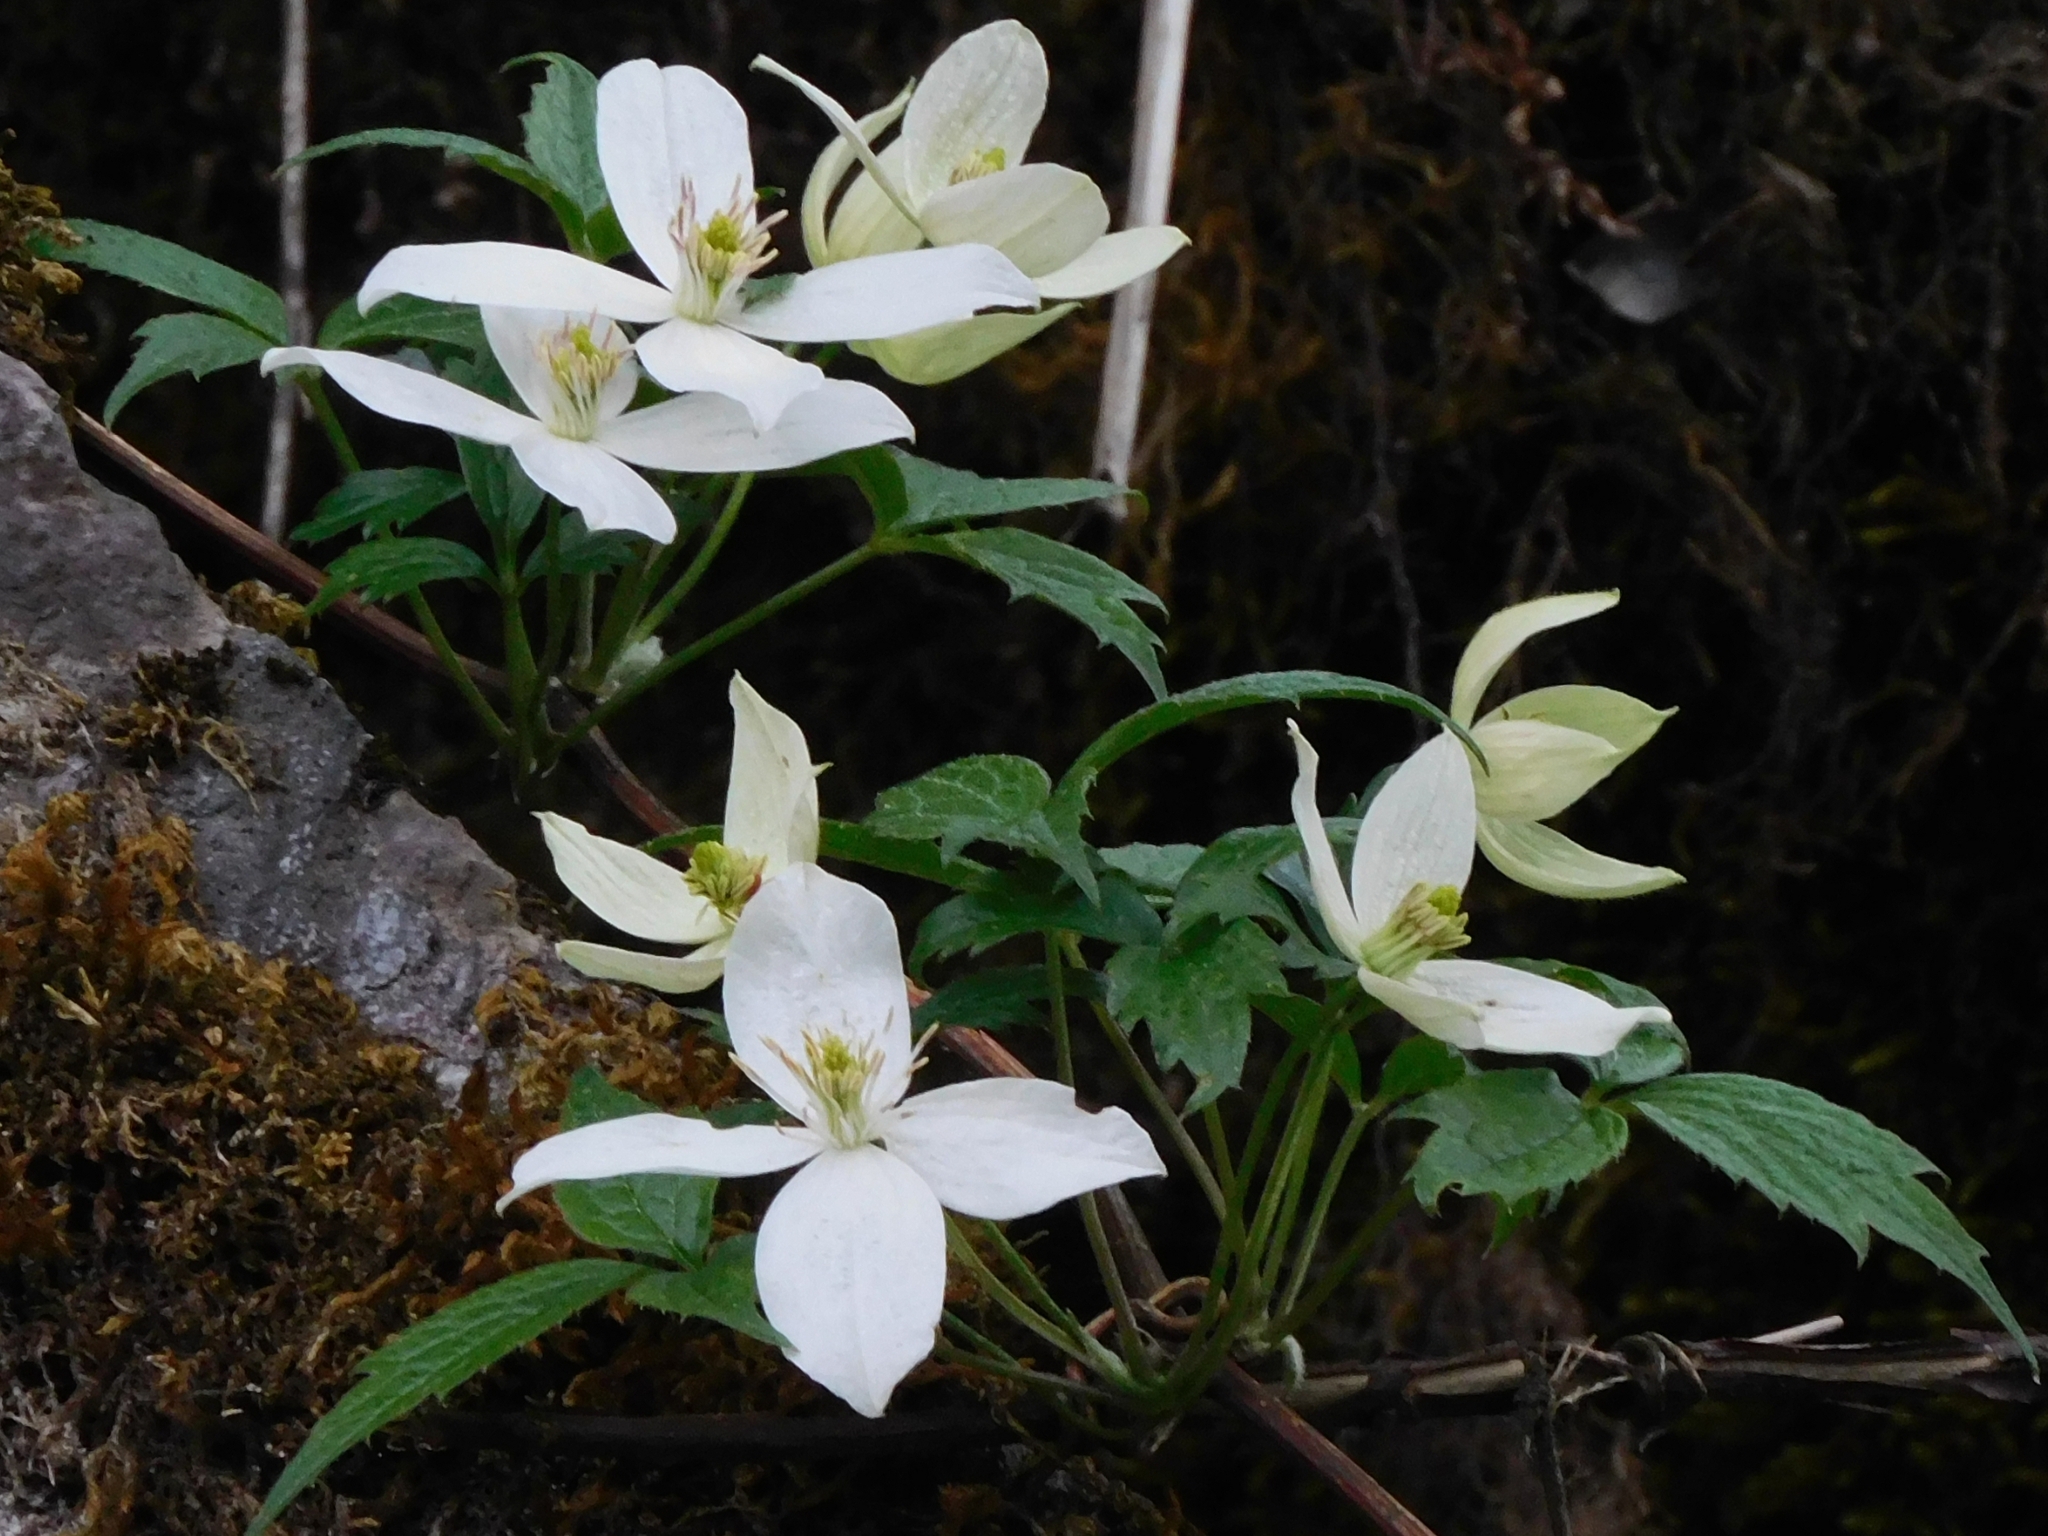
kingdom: Plantae
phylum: Tracheophyta
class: Magnoliopsida
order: Ranunculales
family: Ranunculaceae
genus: Clematis
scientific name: Clematis montana
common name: Himalayan clematis
